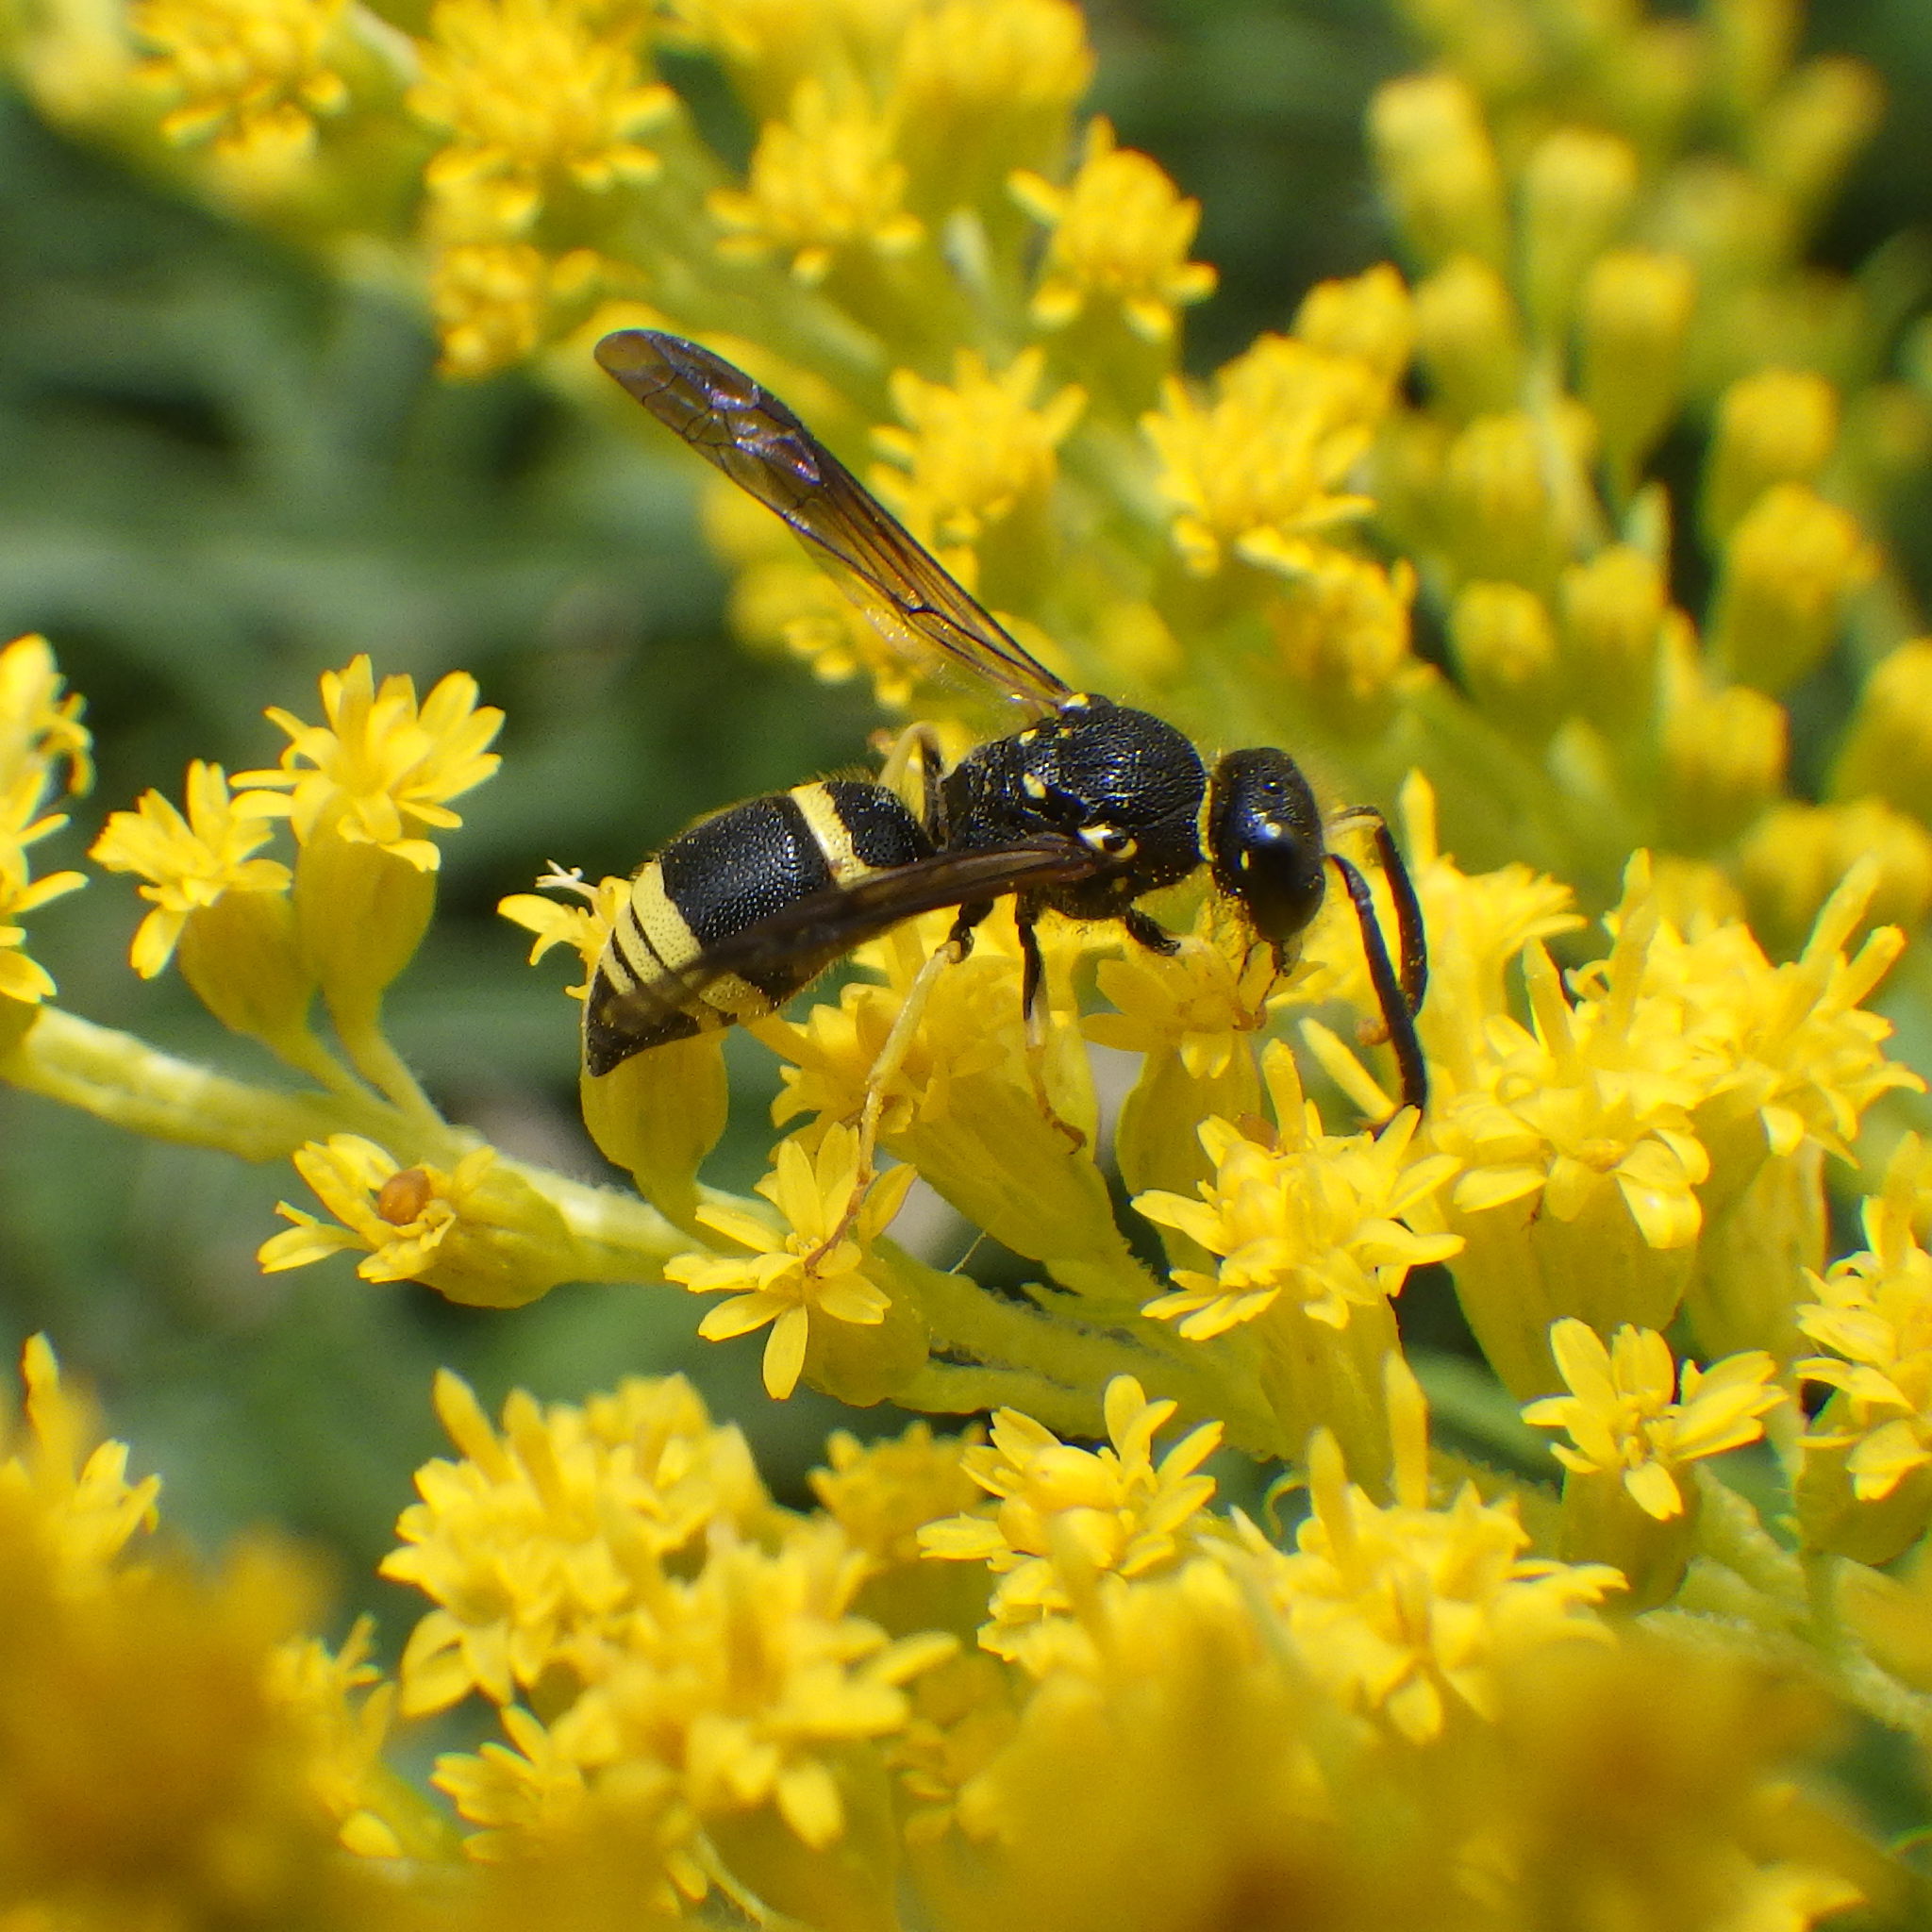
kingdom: Animalia
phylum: Arthropoda
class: Insecta
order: Hymenoptera
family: Vespidae
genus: Ancistrocerus
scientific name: Ancistrocerus
